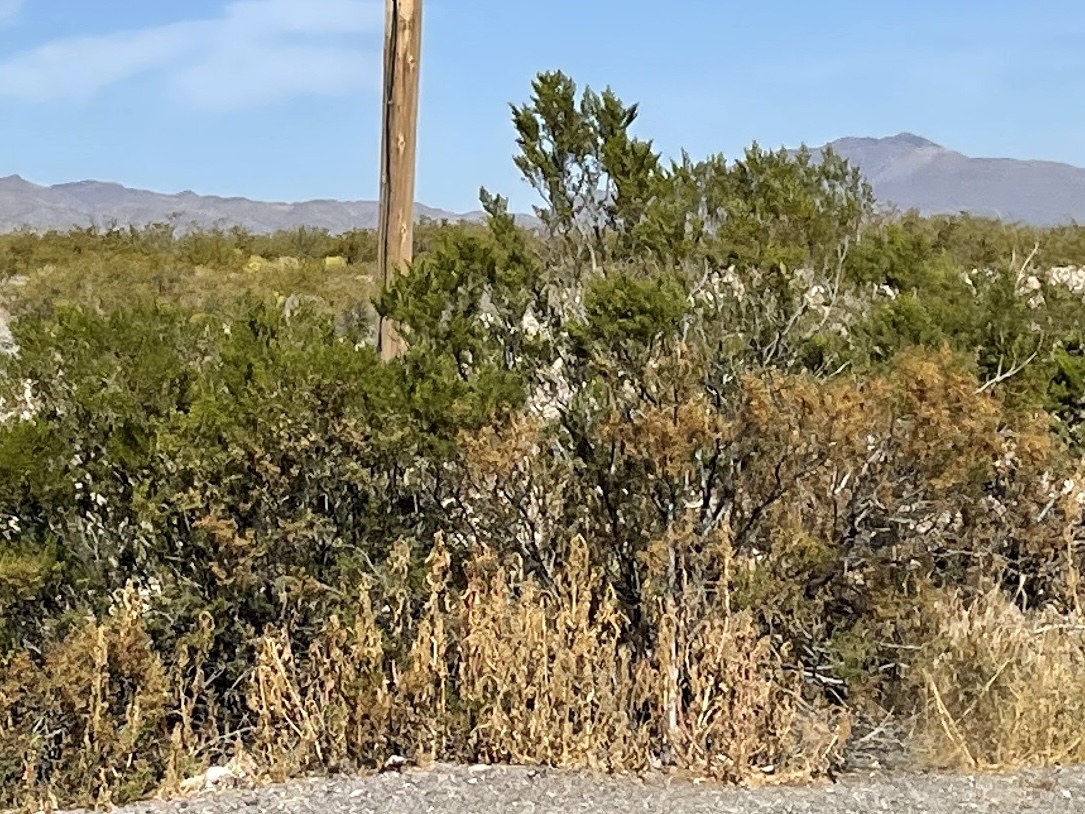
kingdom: Plantae
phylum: Tracheophyta
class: Magnoliopsida
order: Zygophyllales
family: Zygophyllaceae
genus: Larrea
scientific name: Larrea tridentata
